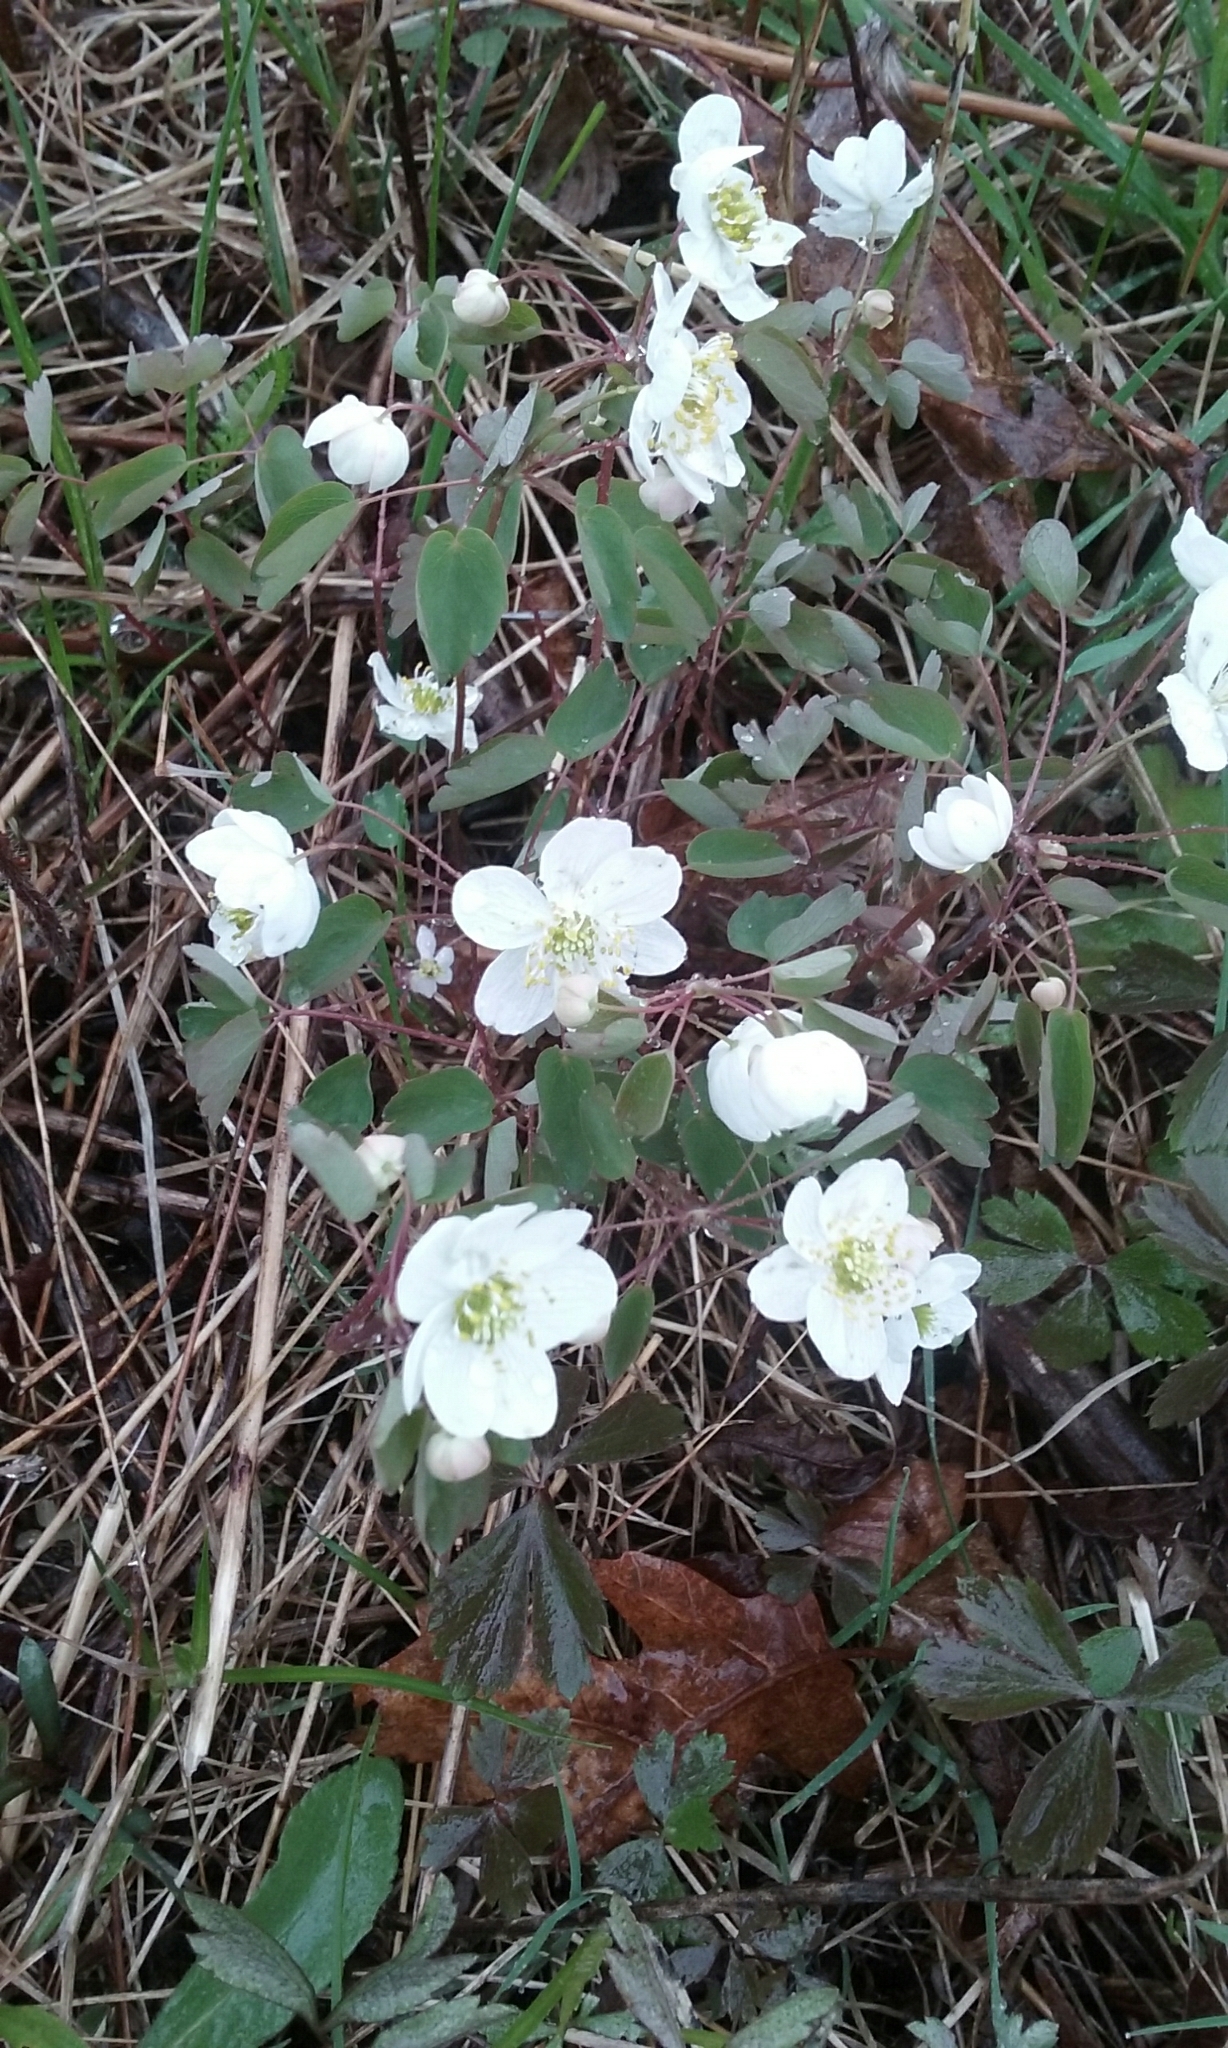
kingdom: Plantae
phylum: Tracheophyta
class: Magnoliopsida
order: Ranunculales
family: Ranunculaceae
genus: Thalictrum
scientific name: Thalictrum thalictroides
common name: Rue-anemone
